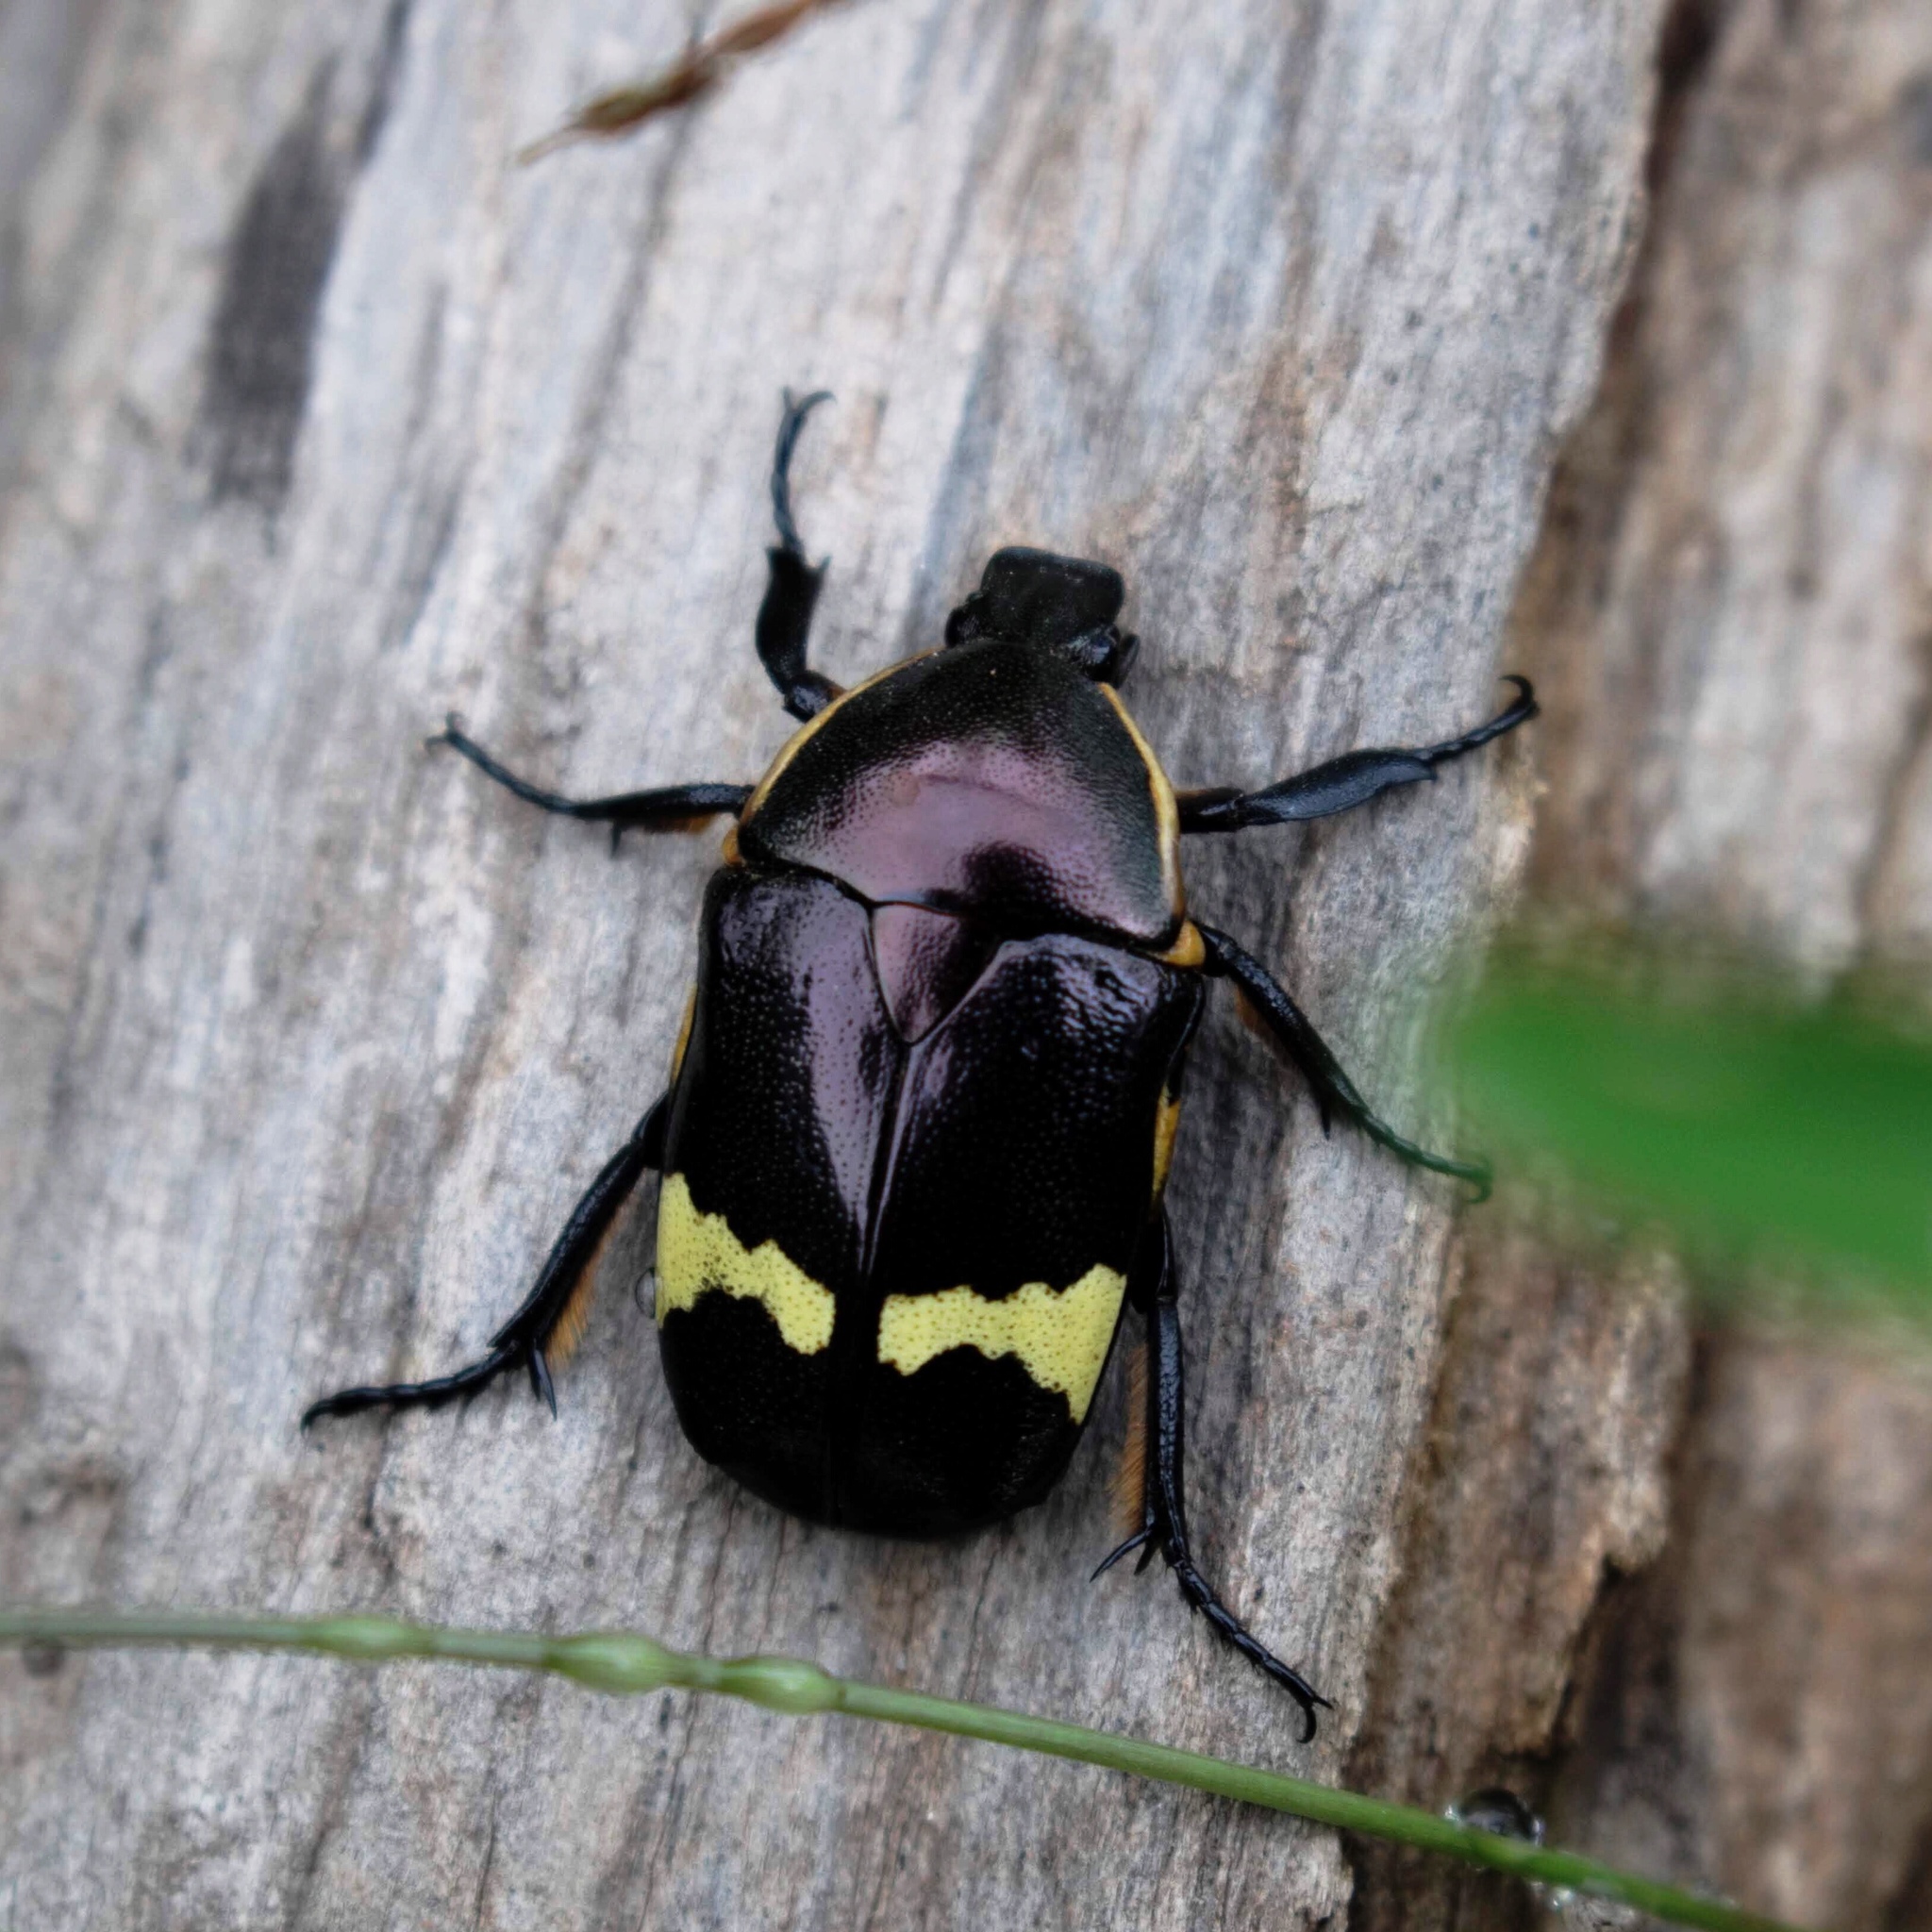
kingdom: Animalia
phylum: Arthropoda
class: Insecta
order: Coleoptera
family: Scarabaeidae
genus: Pedinorrhina
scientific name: Pedinorrhina
